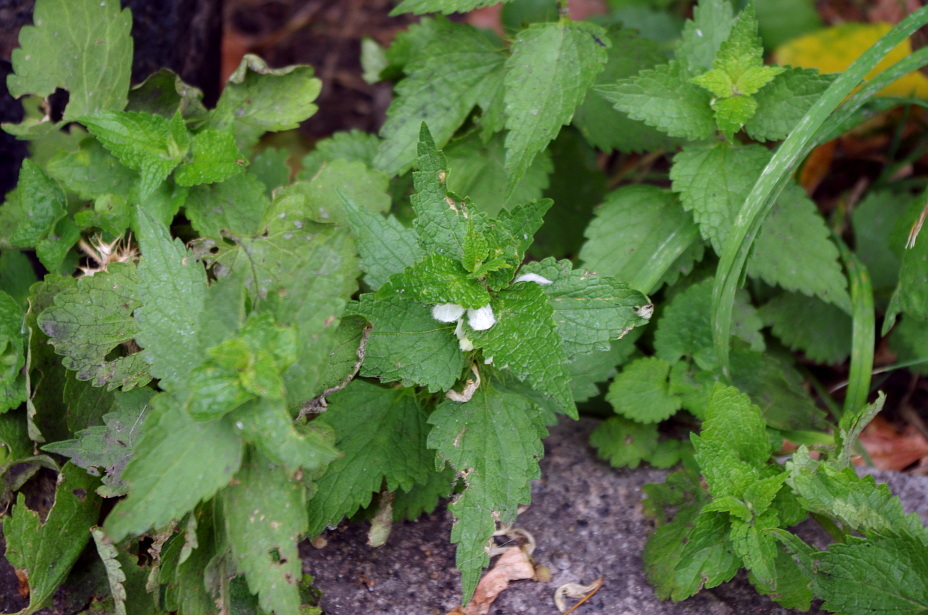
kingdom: Plantae
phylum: Tracheophyta
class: Magnoliopsida
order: Lamiales
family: Lamiaceae
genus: Lamium
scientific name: Lamium album
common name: White dead-nettle
